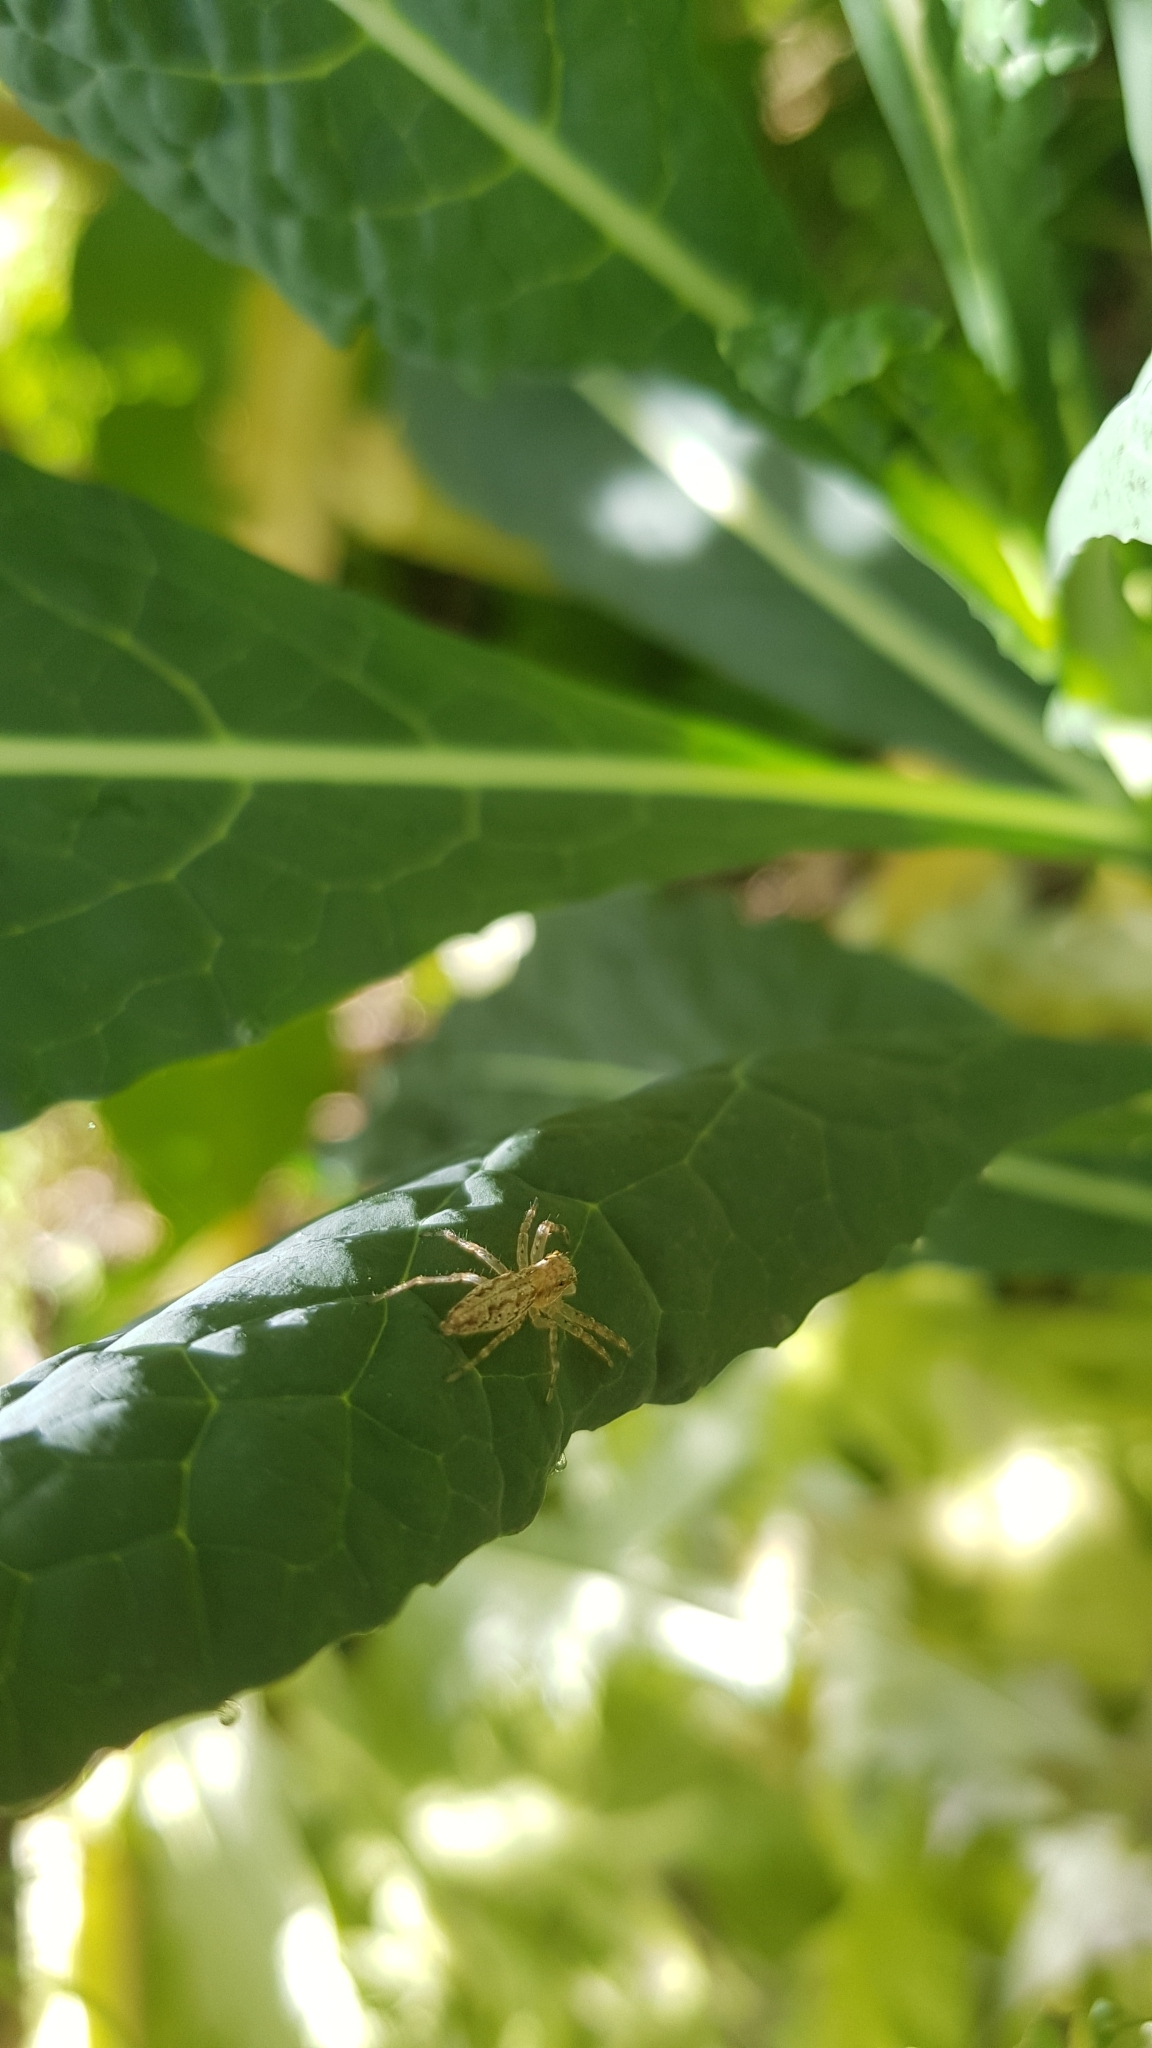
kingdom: Animalia
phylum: Arthropoda
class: Arachnida
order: Araneae
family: Salticidae
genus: Helpis
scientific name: Helpis minitabunda
